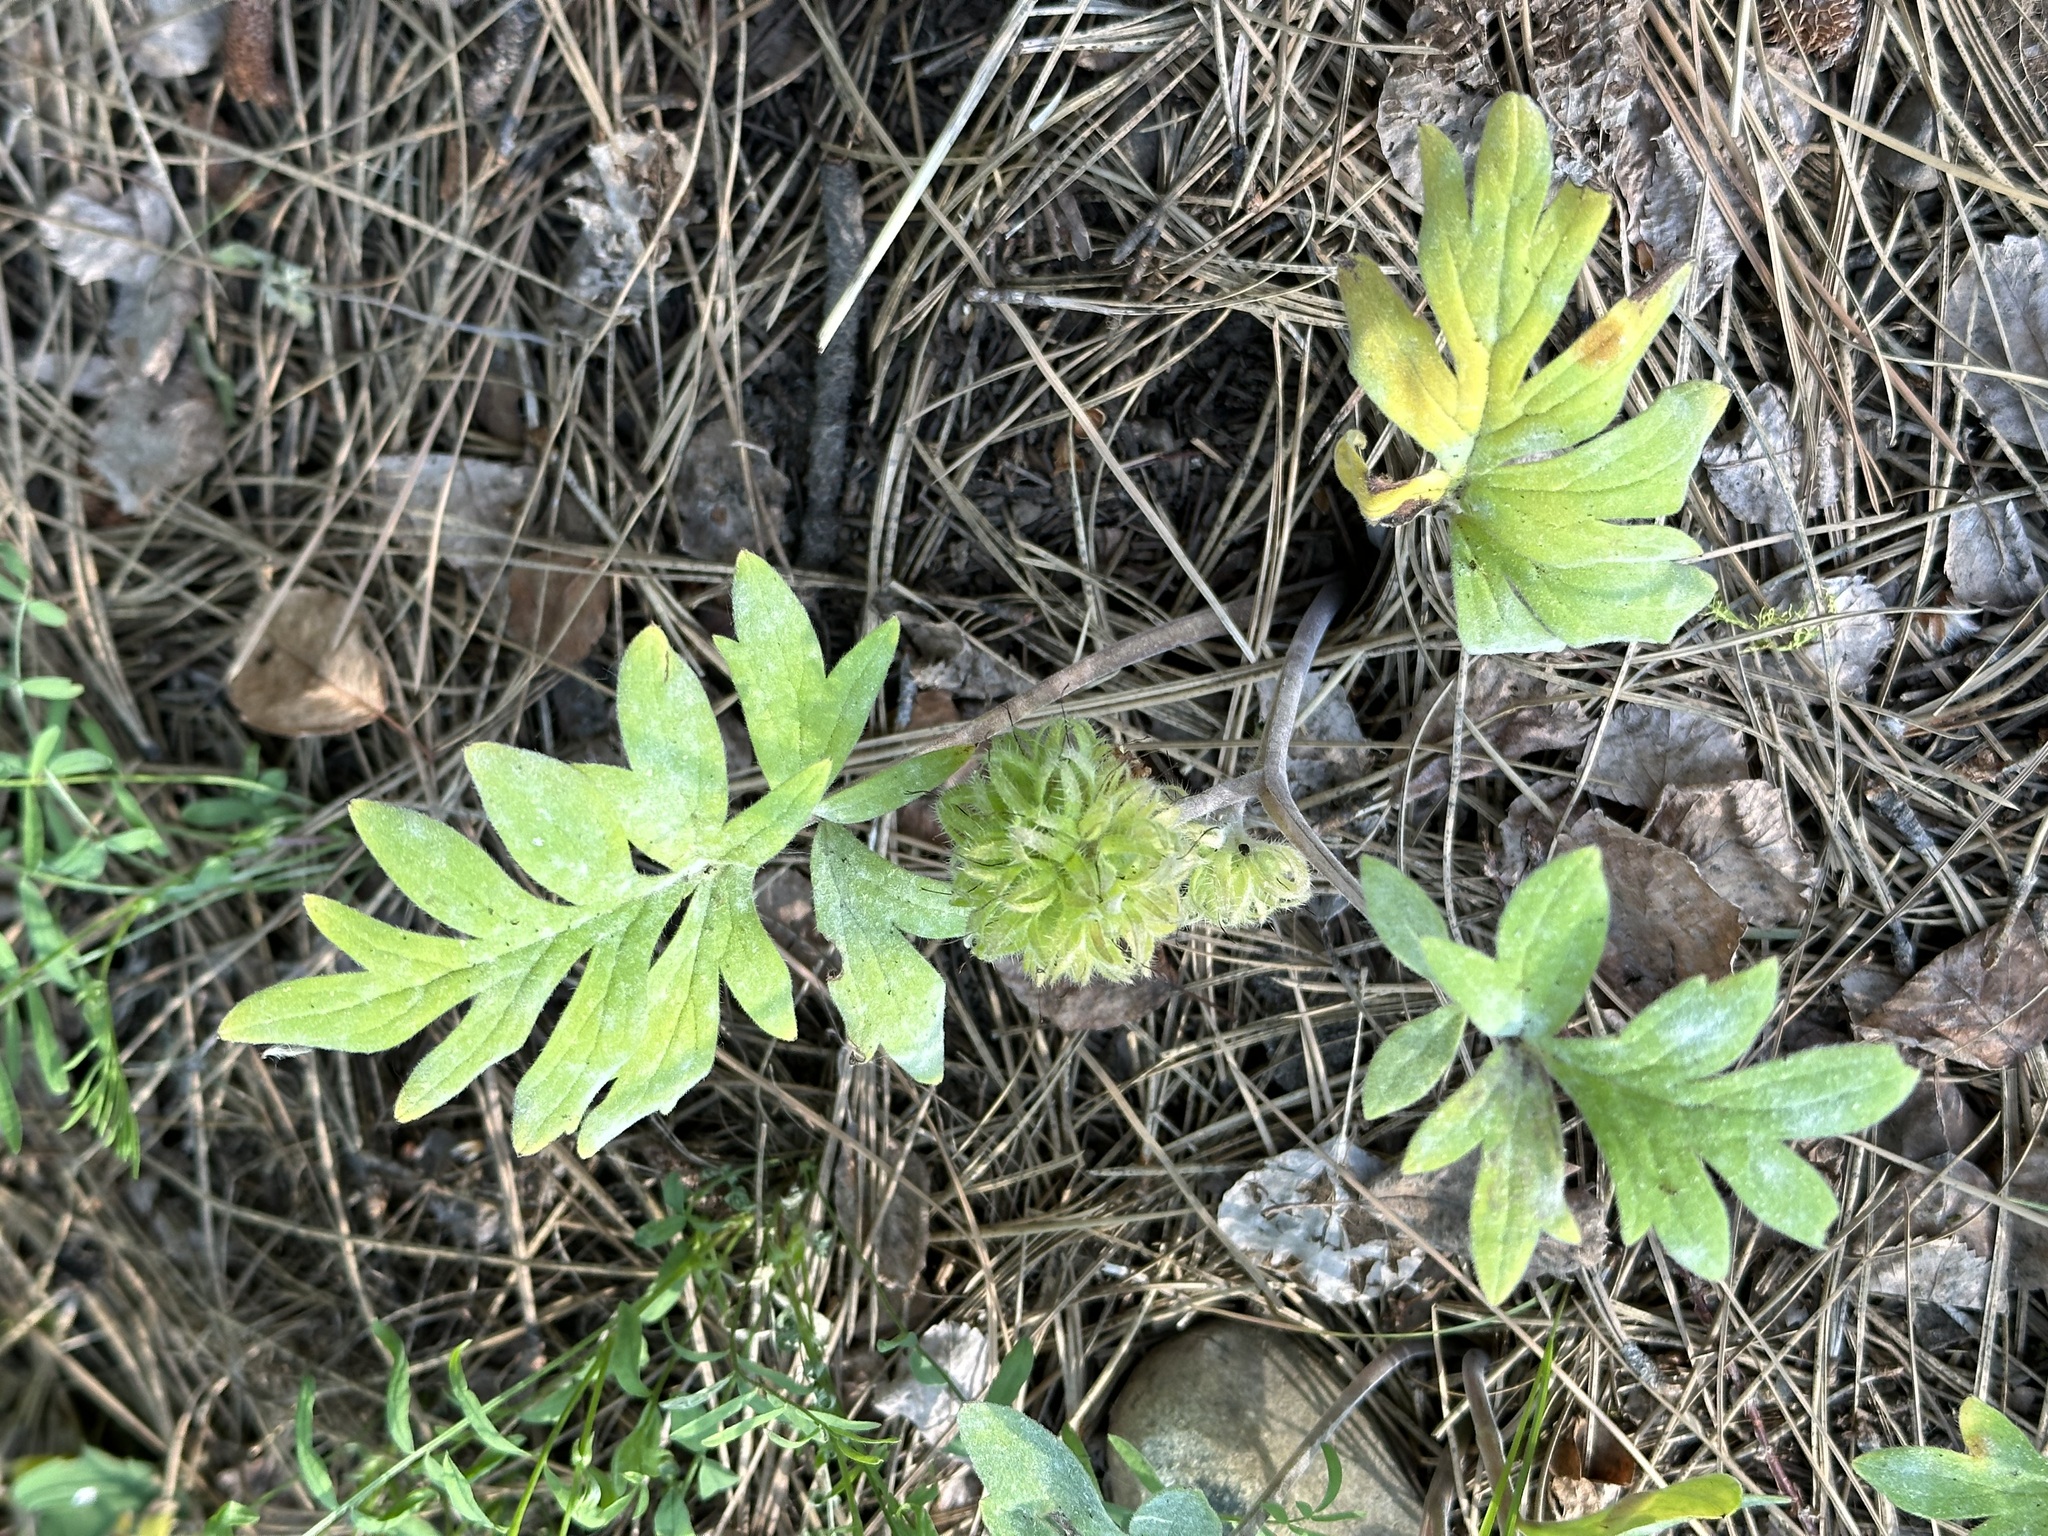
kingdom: Plantae
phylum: Tracheophyta
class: Magnoliopsida
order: Boraginales
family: Hydrophyllaceae
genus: Hydrophyllum
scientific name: Hydrophyllum capitatum
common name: Woollen-breeches
